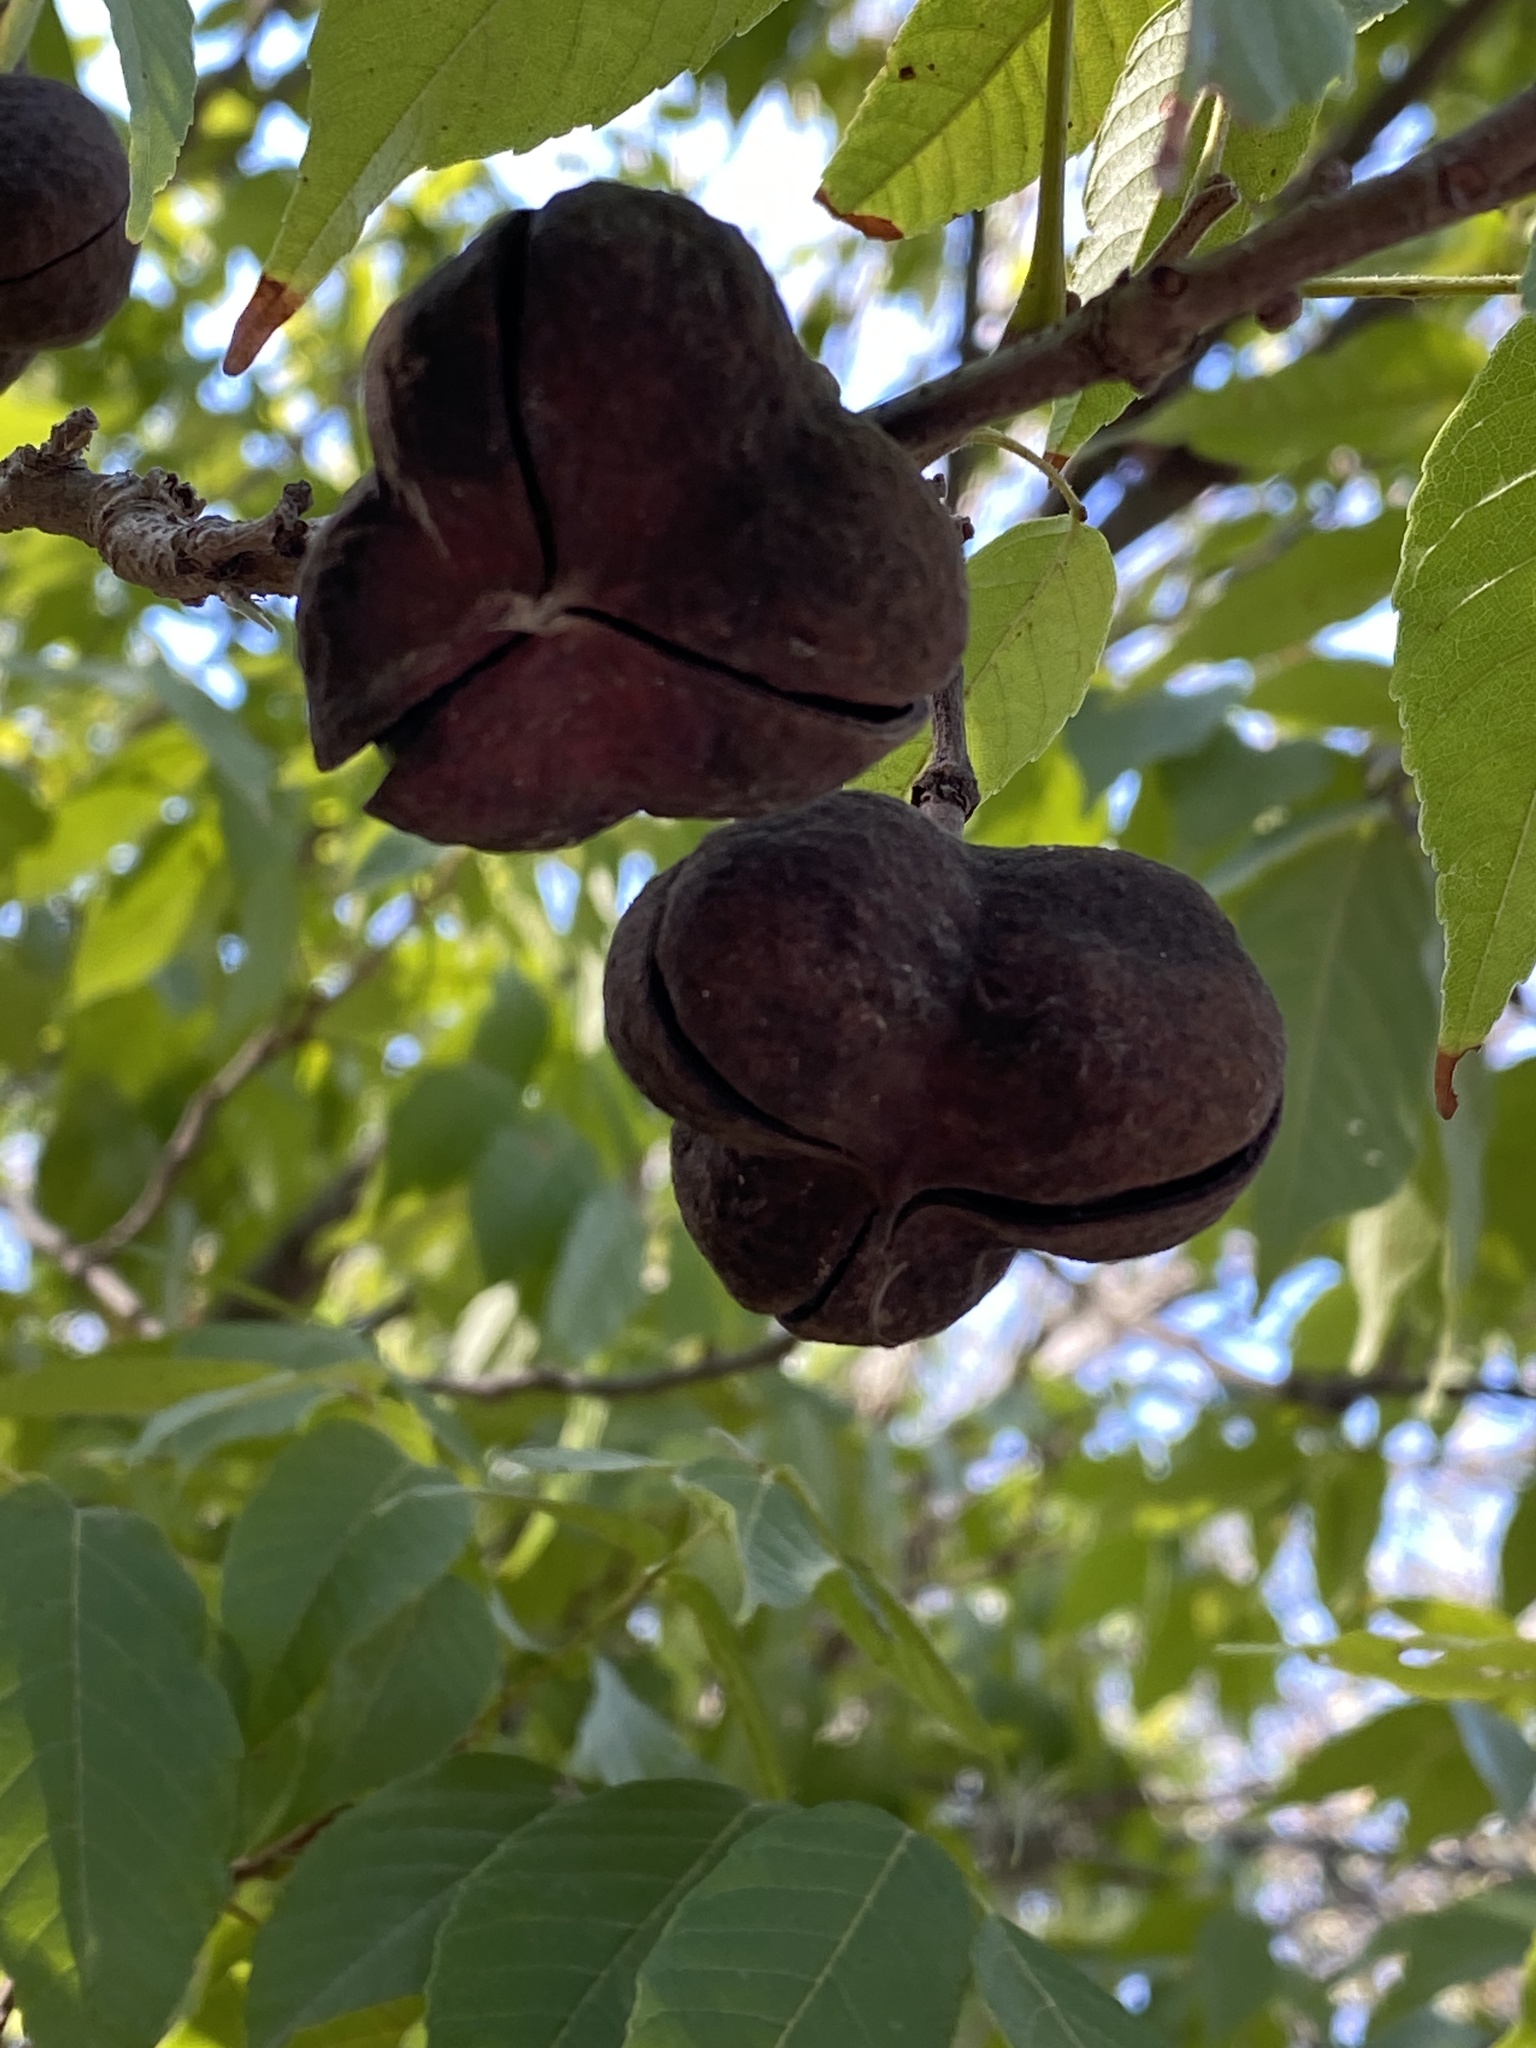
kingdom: Plantae
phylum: Tracheophyta
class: Magnoliopsida
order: Sapindales
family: Sapindaceae
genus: Ungnadia
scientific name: Ungnadia speciosa
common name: Texas-buckeye
